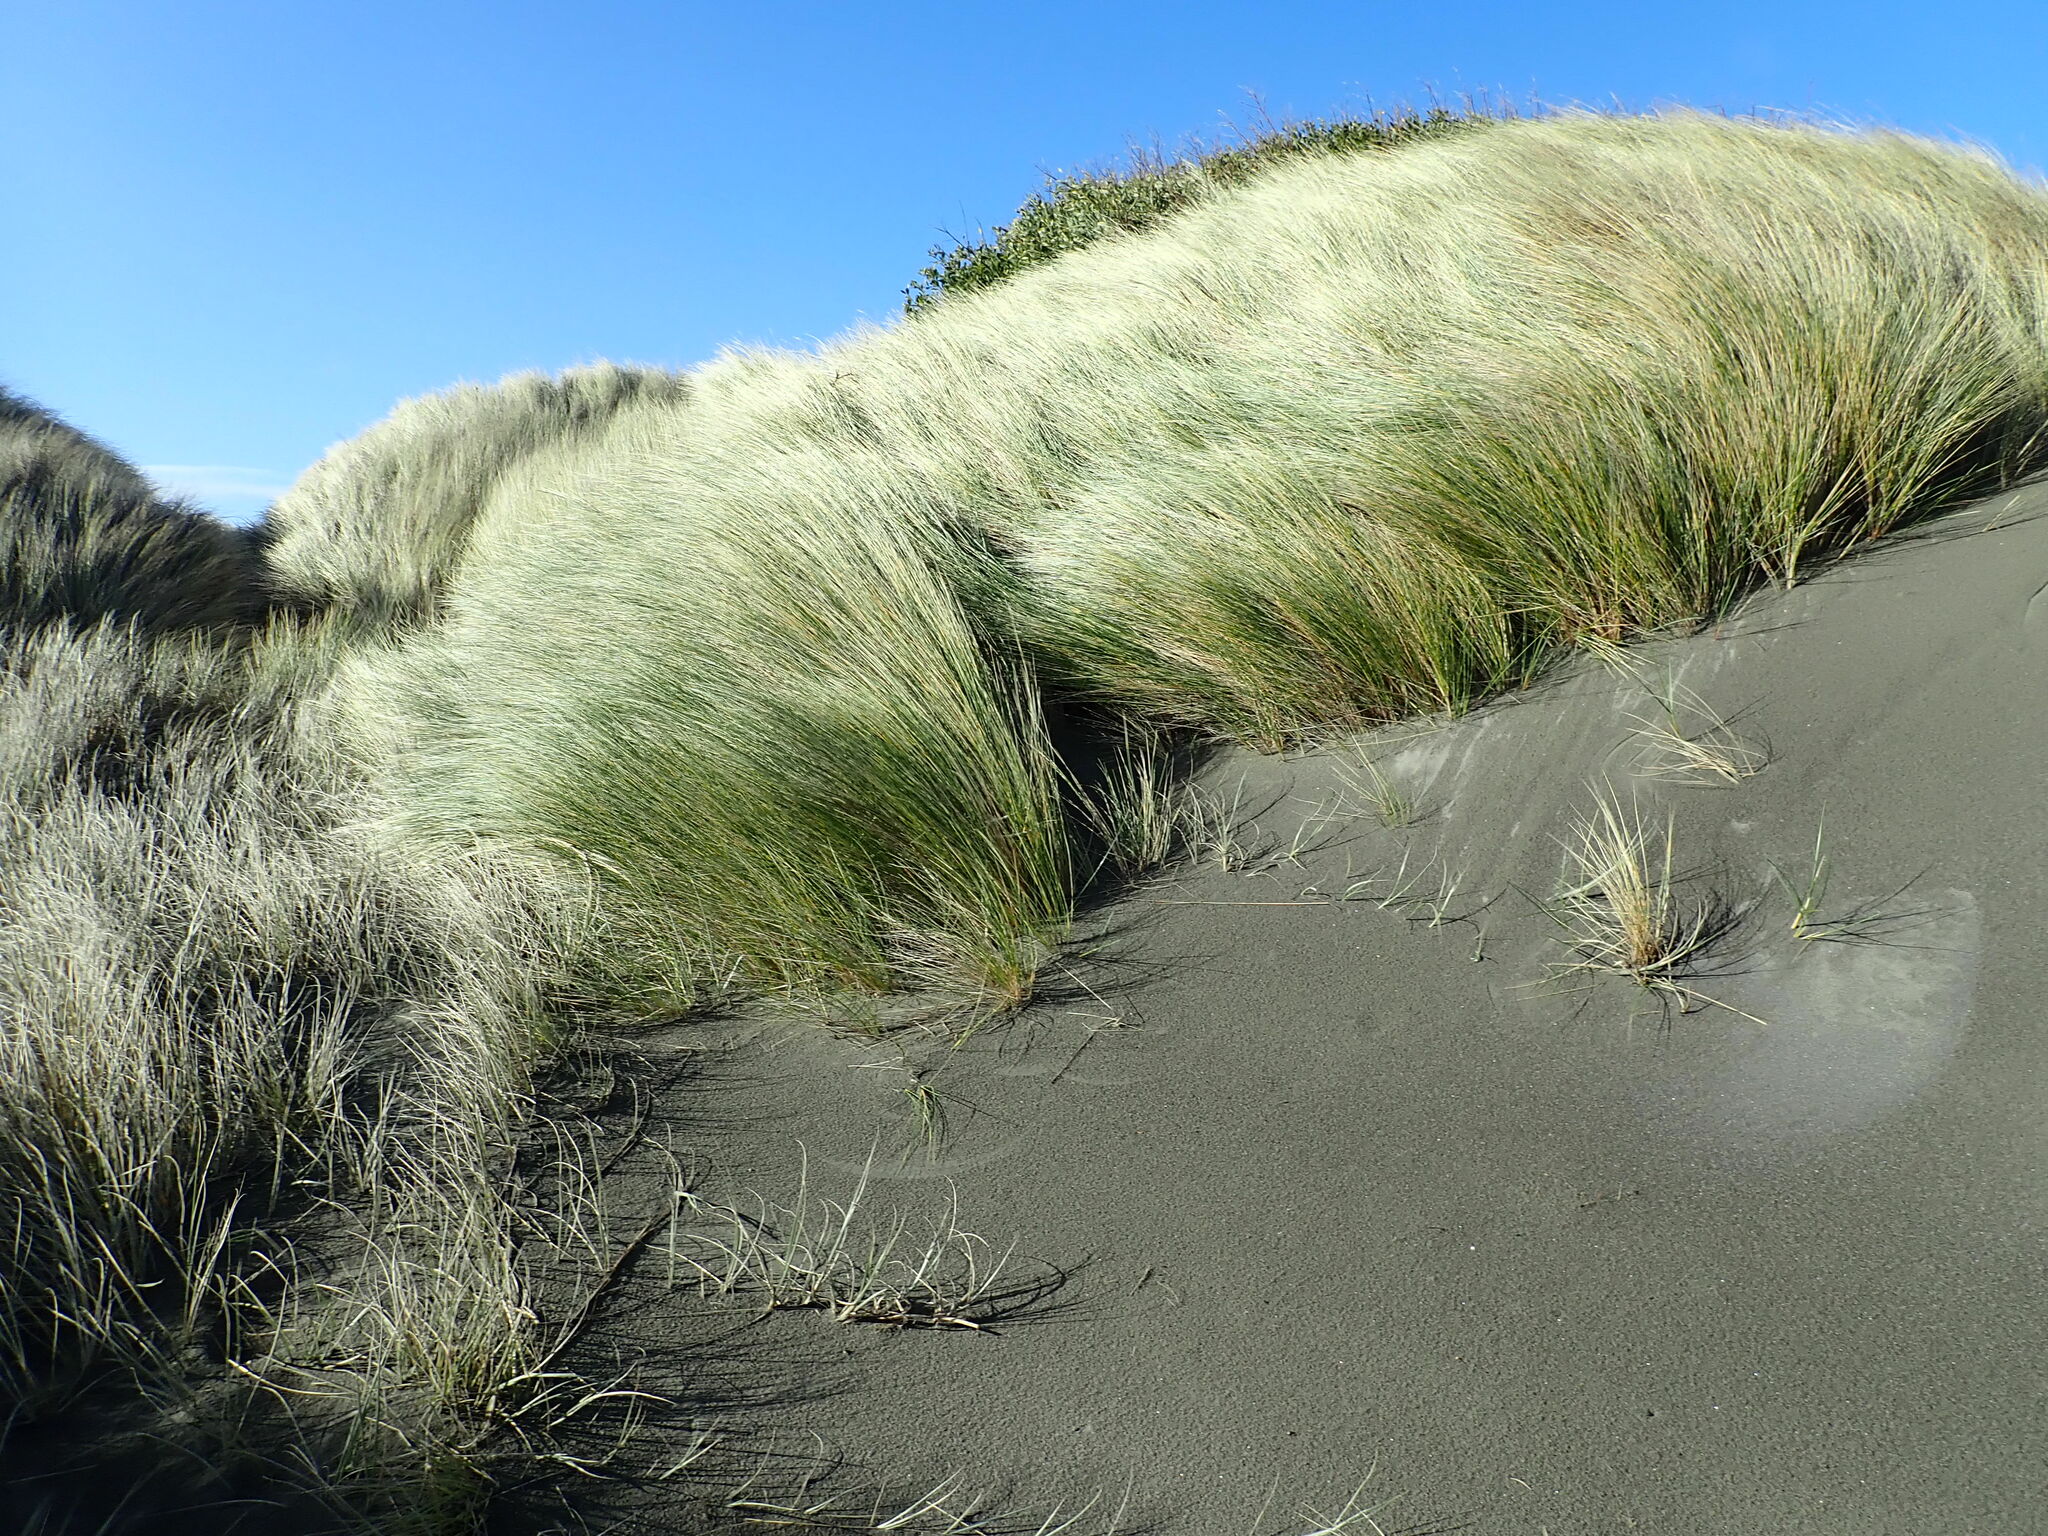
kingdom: Plantae
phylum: Tracheophyta
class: Liliopsida
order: Poales
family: Poaceae
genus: Calamagrostis
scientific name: Calamagrostis arenaria
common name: European beachgrass
